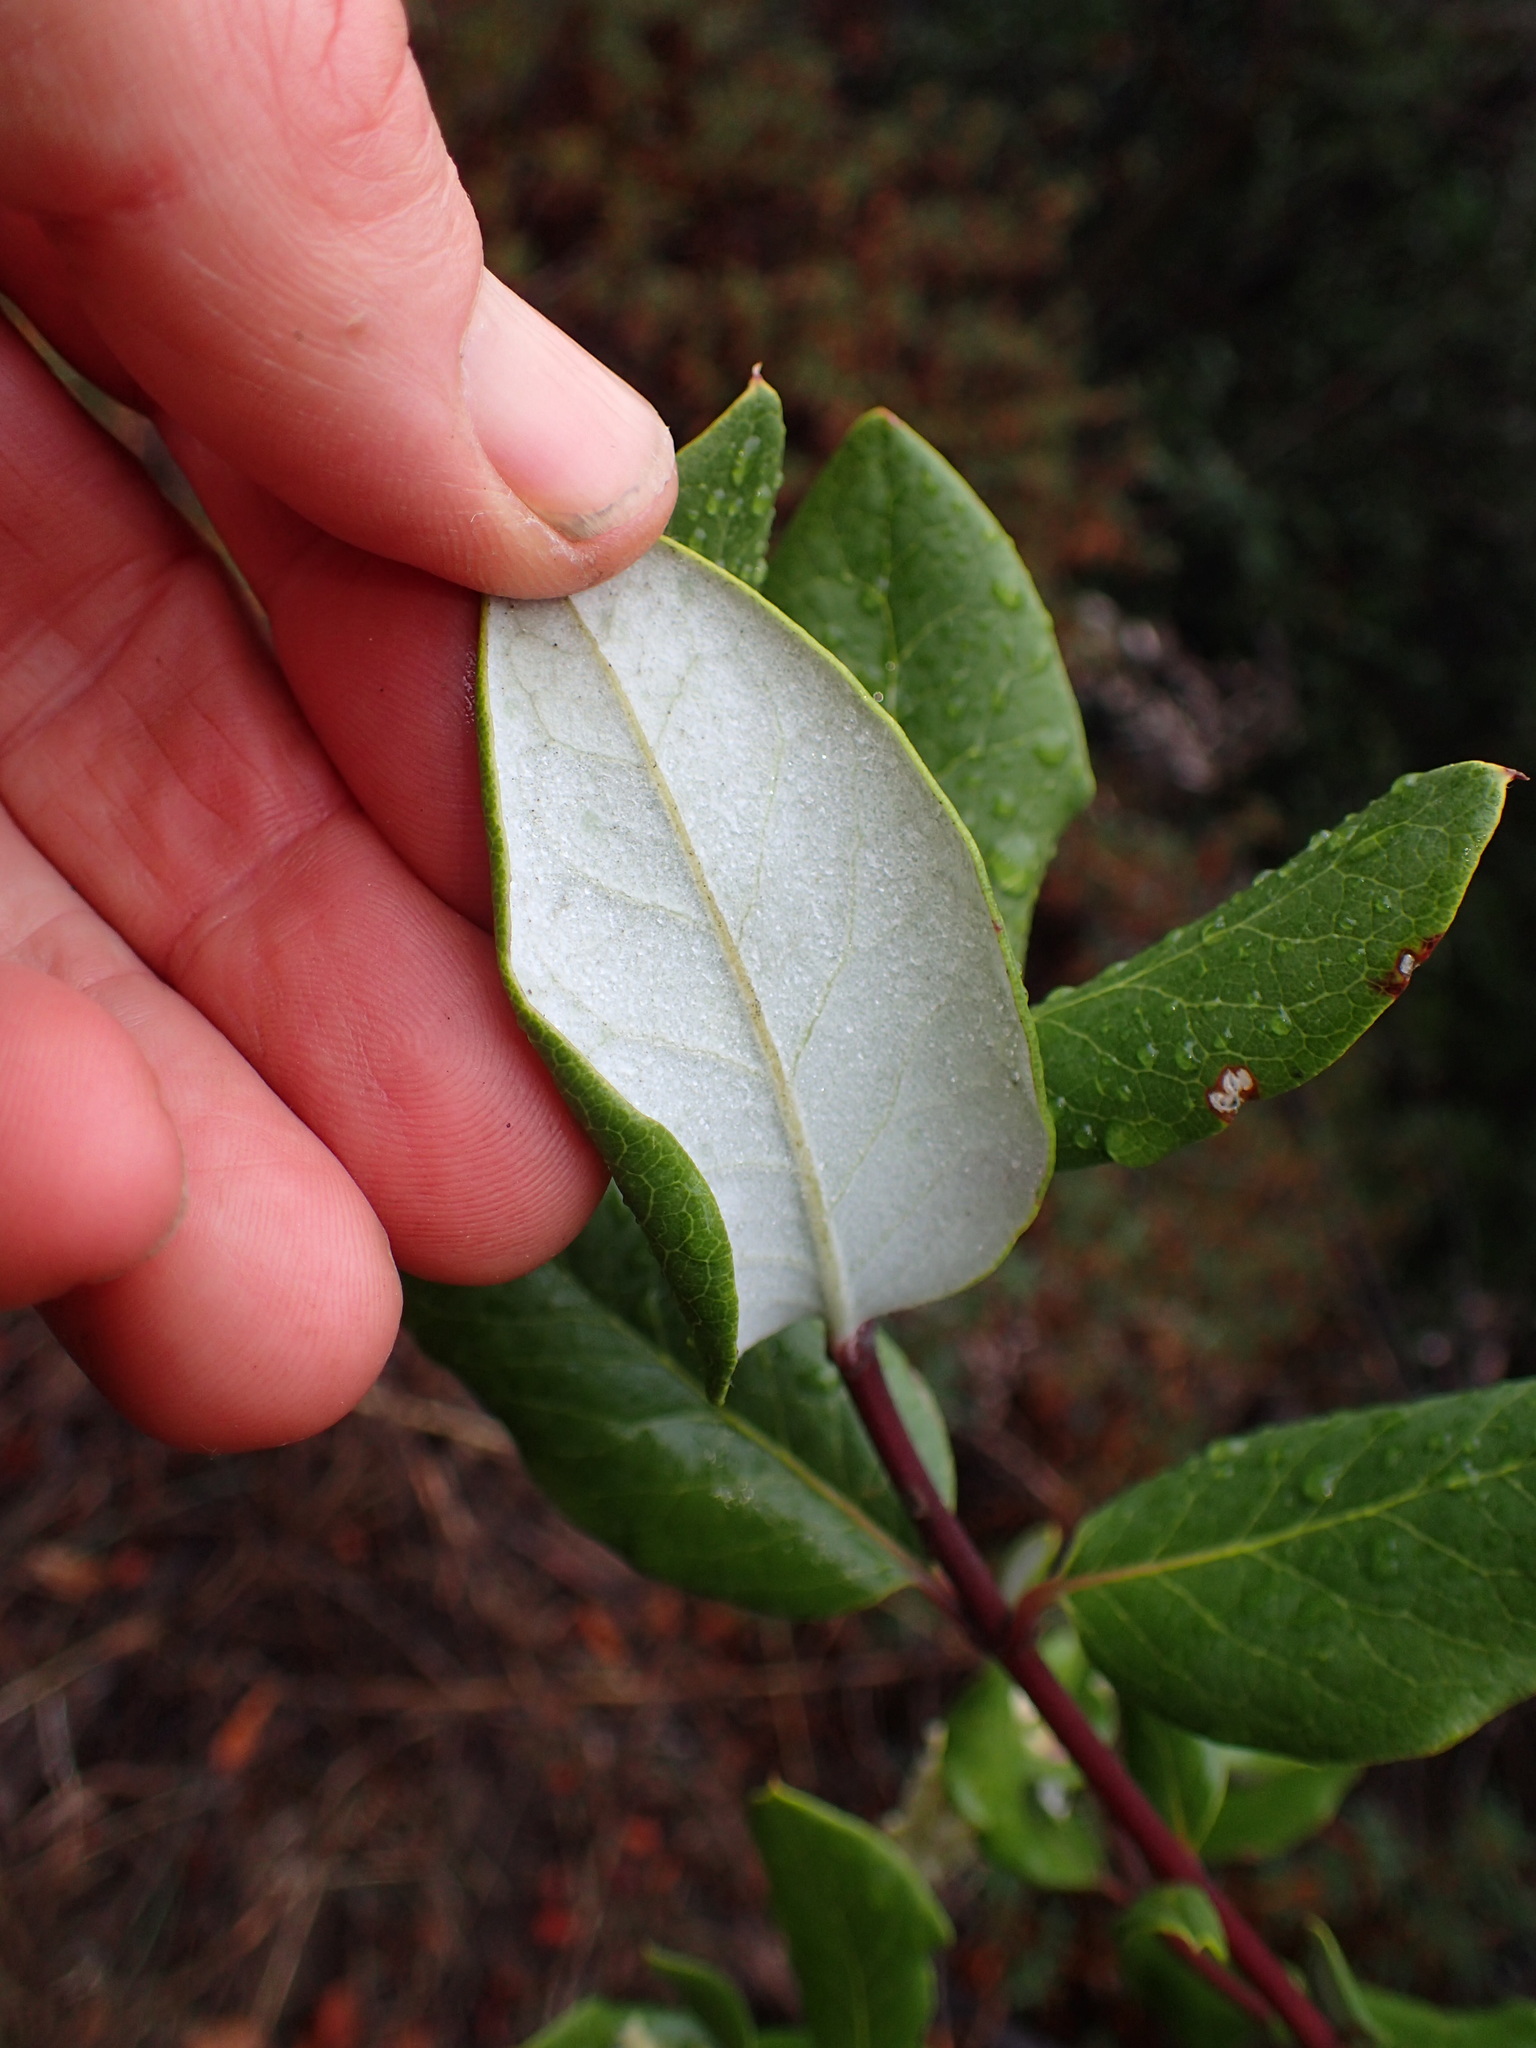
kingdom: Plantae
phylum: Tracheophyta
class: Magnoliopsida
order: Garryales
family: Garryaceae
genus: Garrya
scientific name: Garrya veatchii
